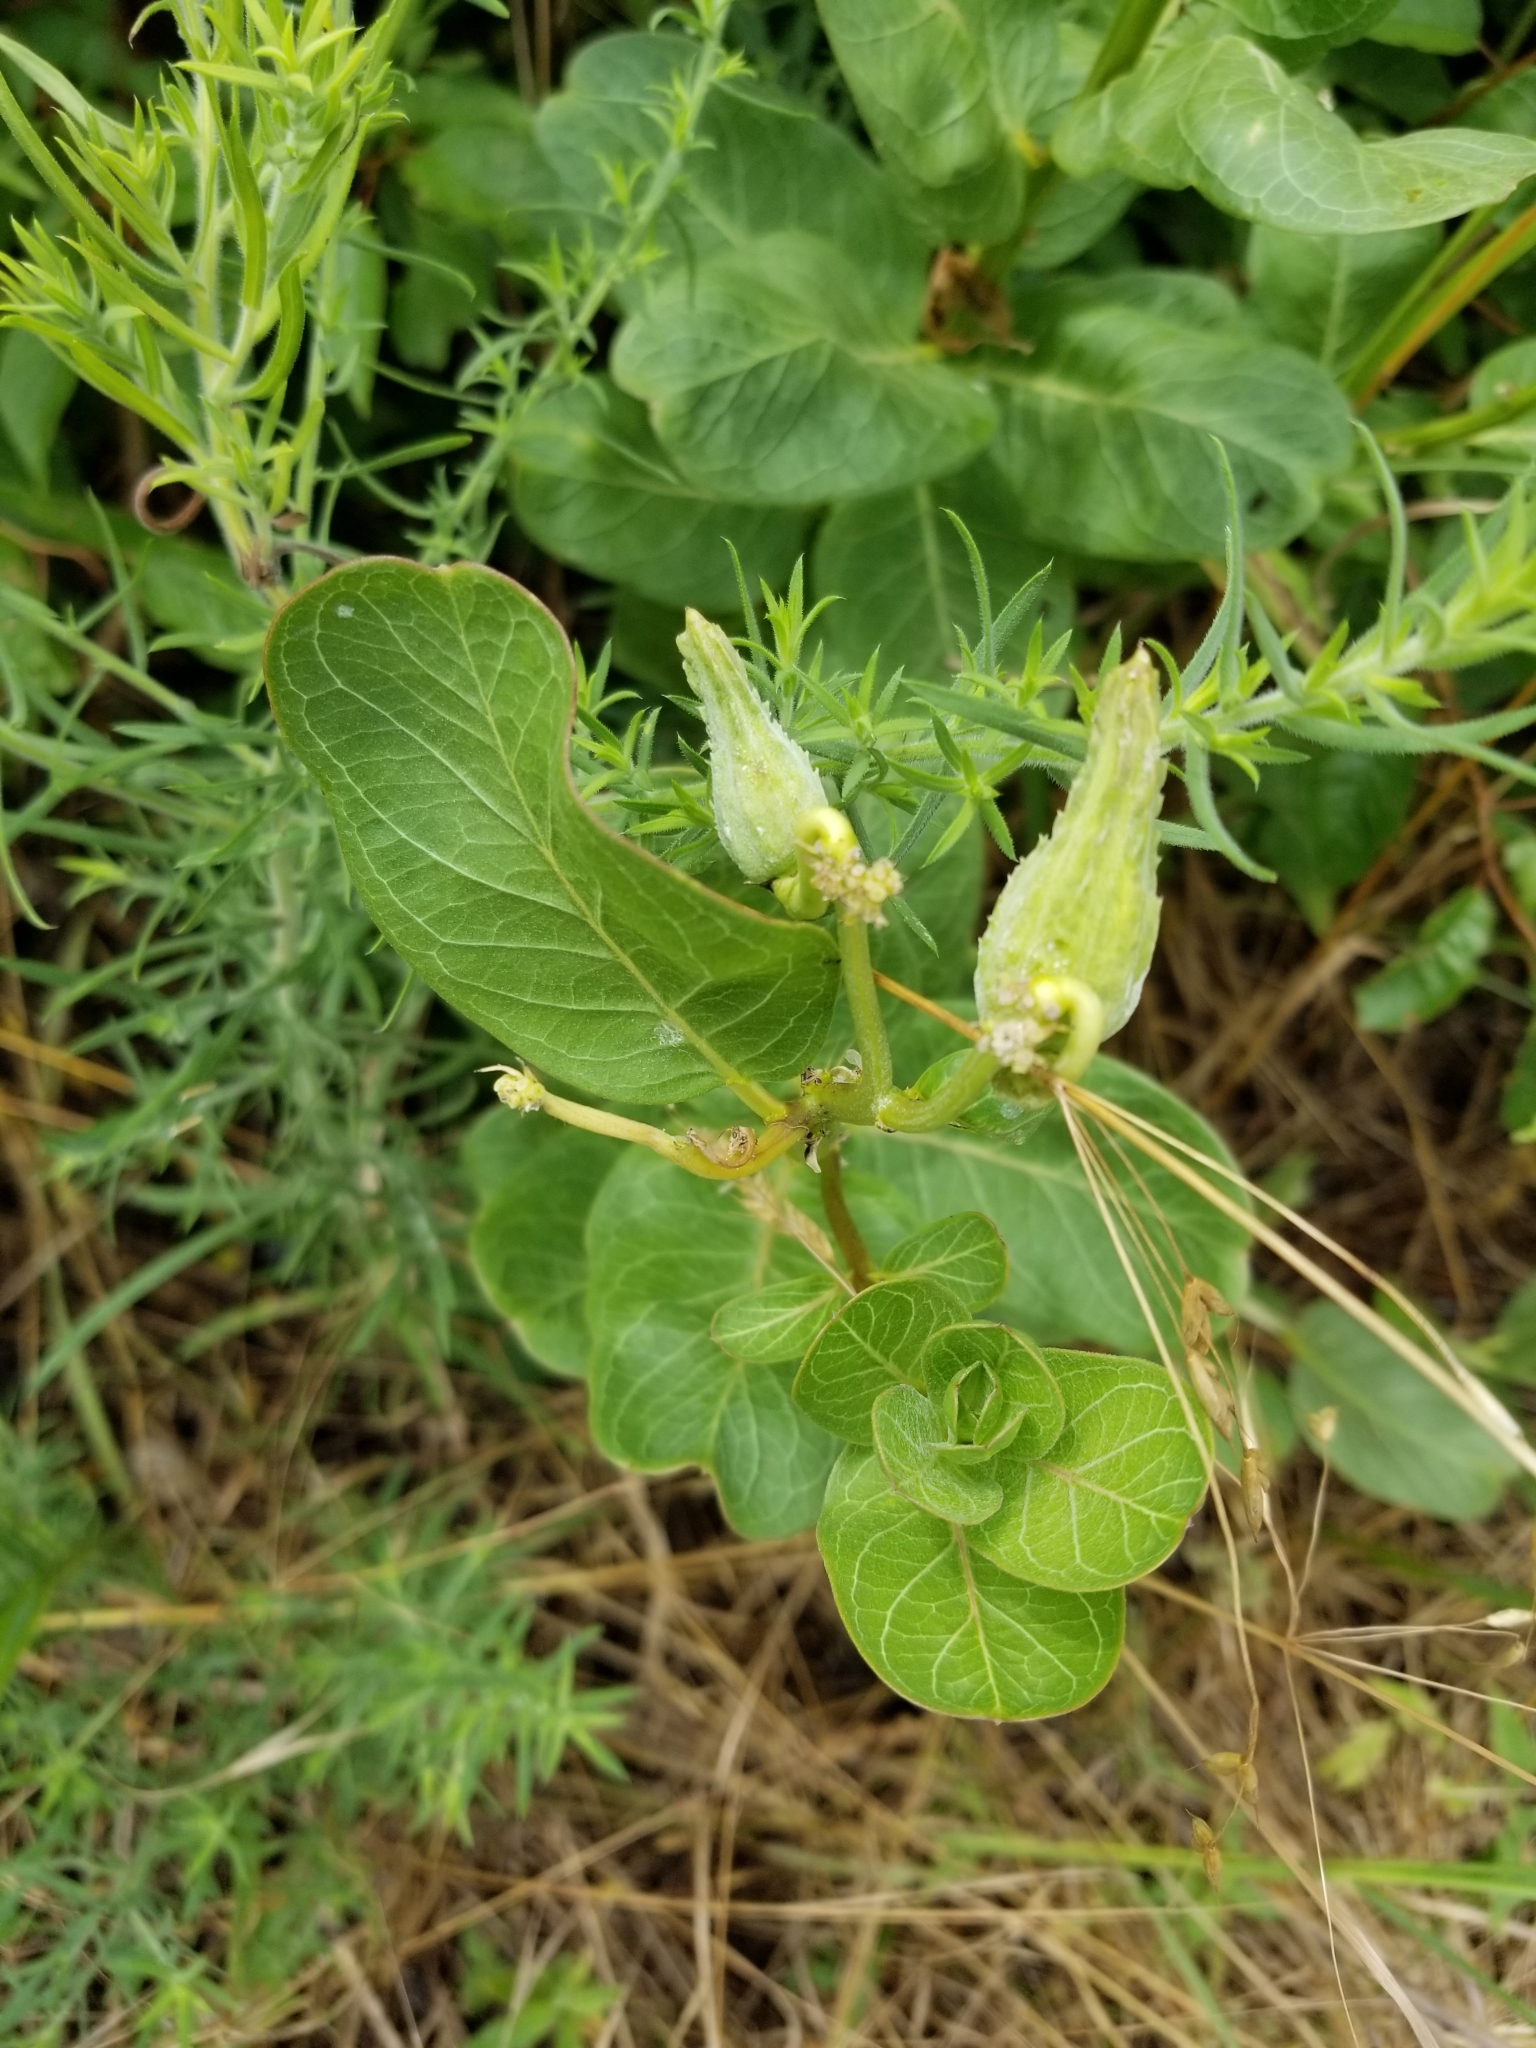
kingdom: Plantae
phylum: Tracheophyta
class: Magnoliopsida
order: Gentianales
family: Apocynaceae
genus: Asclepias
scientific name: Asclepias viridis
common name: Antelope-horns
